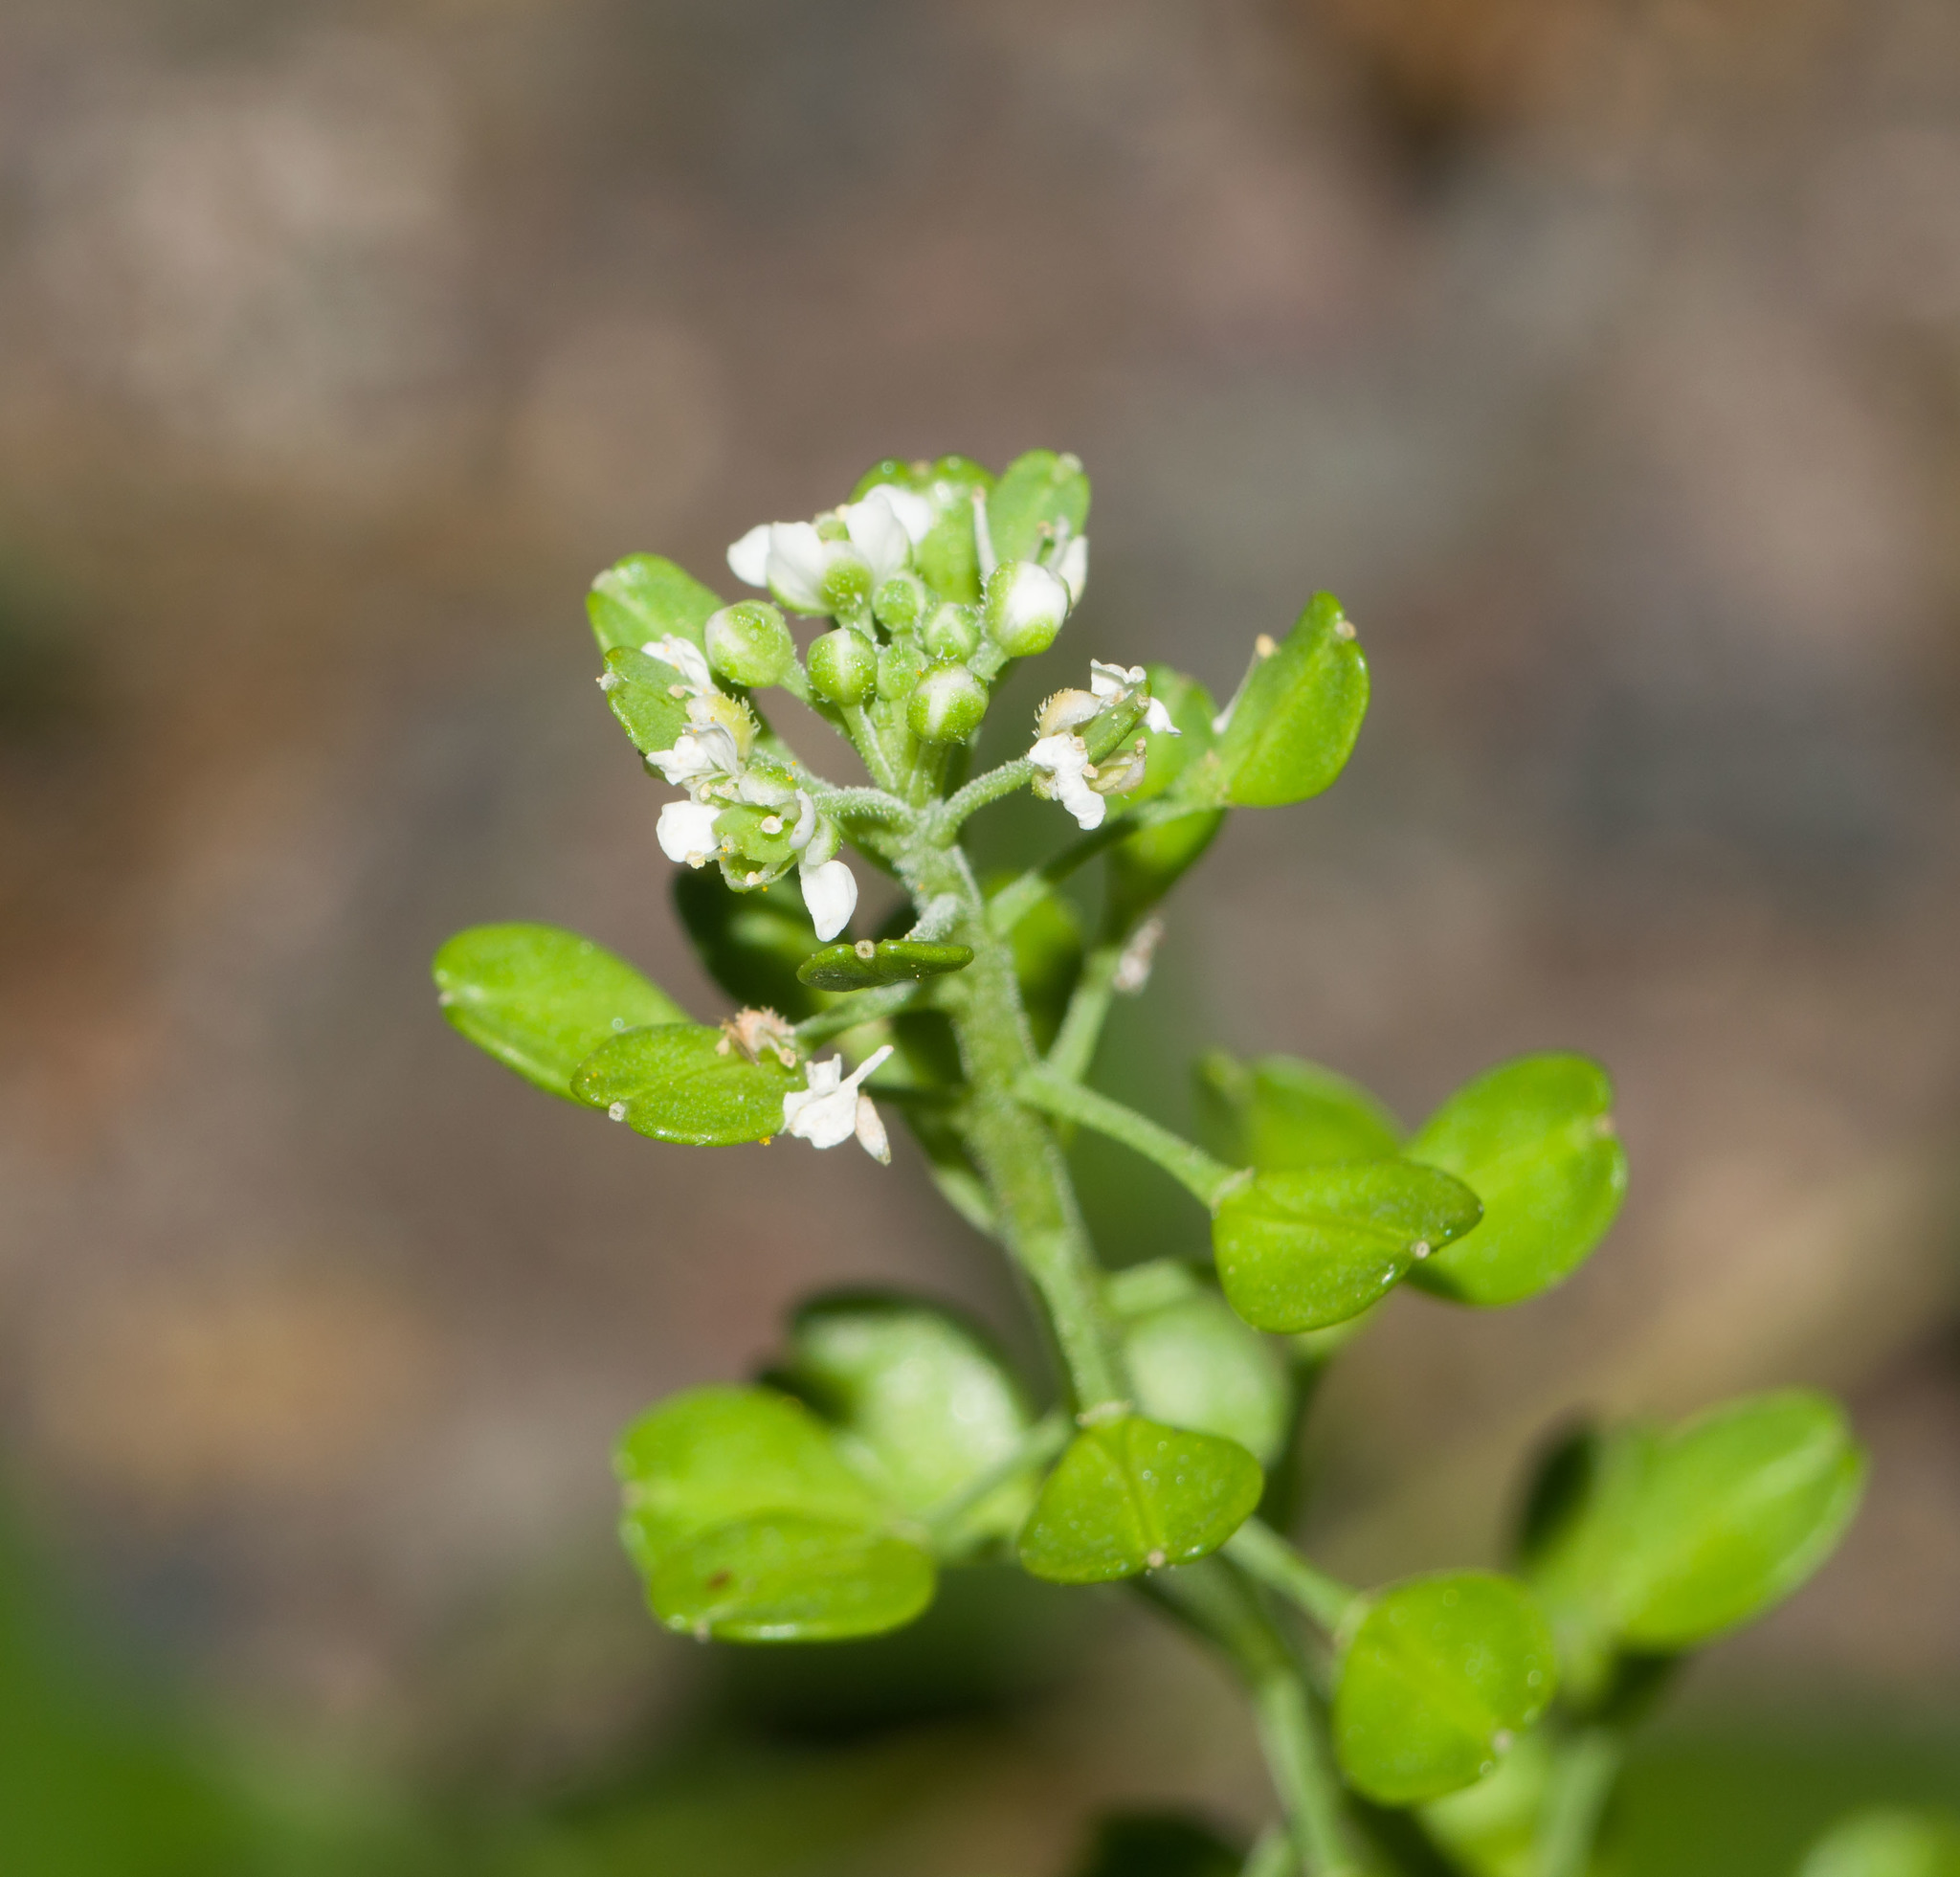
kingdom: Plantae
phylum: Tracheophyta
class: Magnoliopsida
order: Brassicales
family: Brassicaceae
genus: Lepidium
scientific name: Lepidium owaihiense
